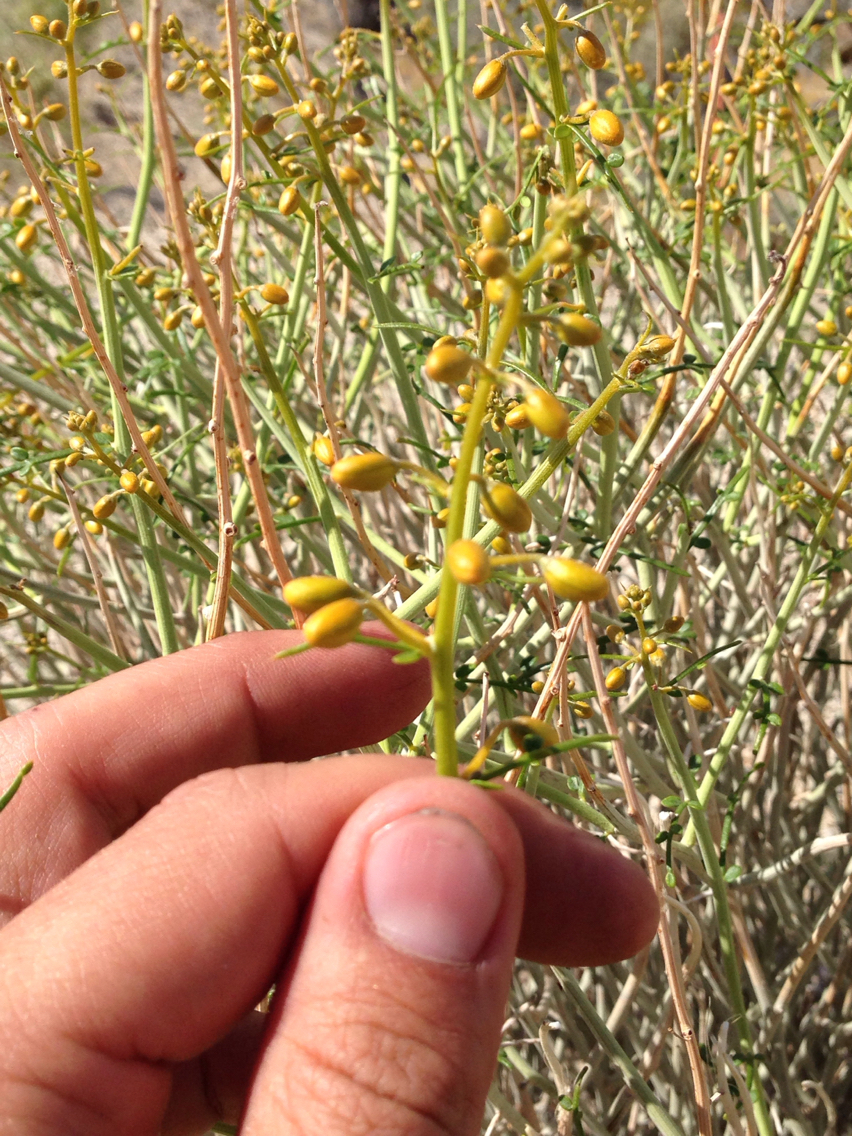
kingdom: Plantae
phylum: Tracheophyta
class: Magnoliopsida
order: Fabales
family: Fabaceae
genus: Senna
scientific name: Senna armata
